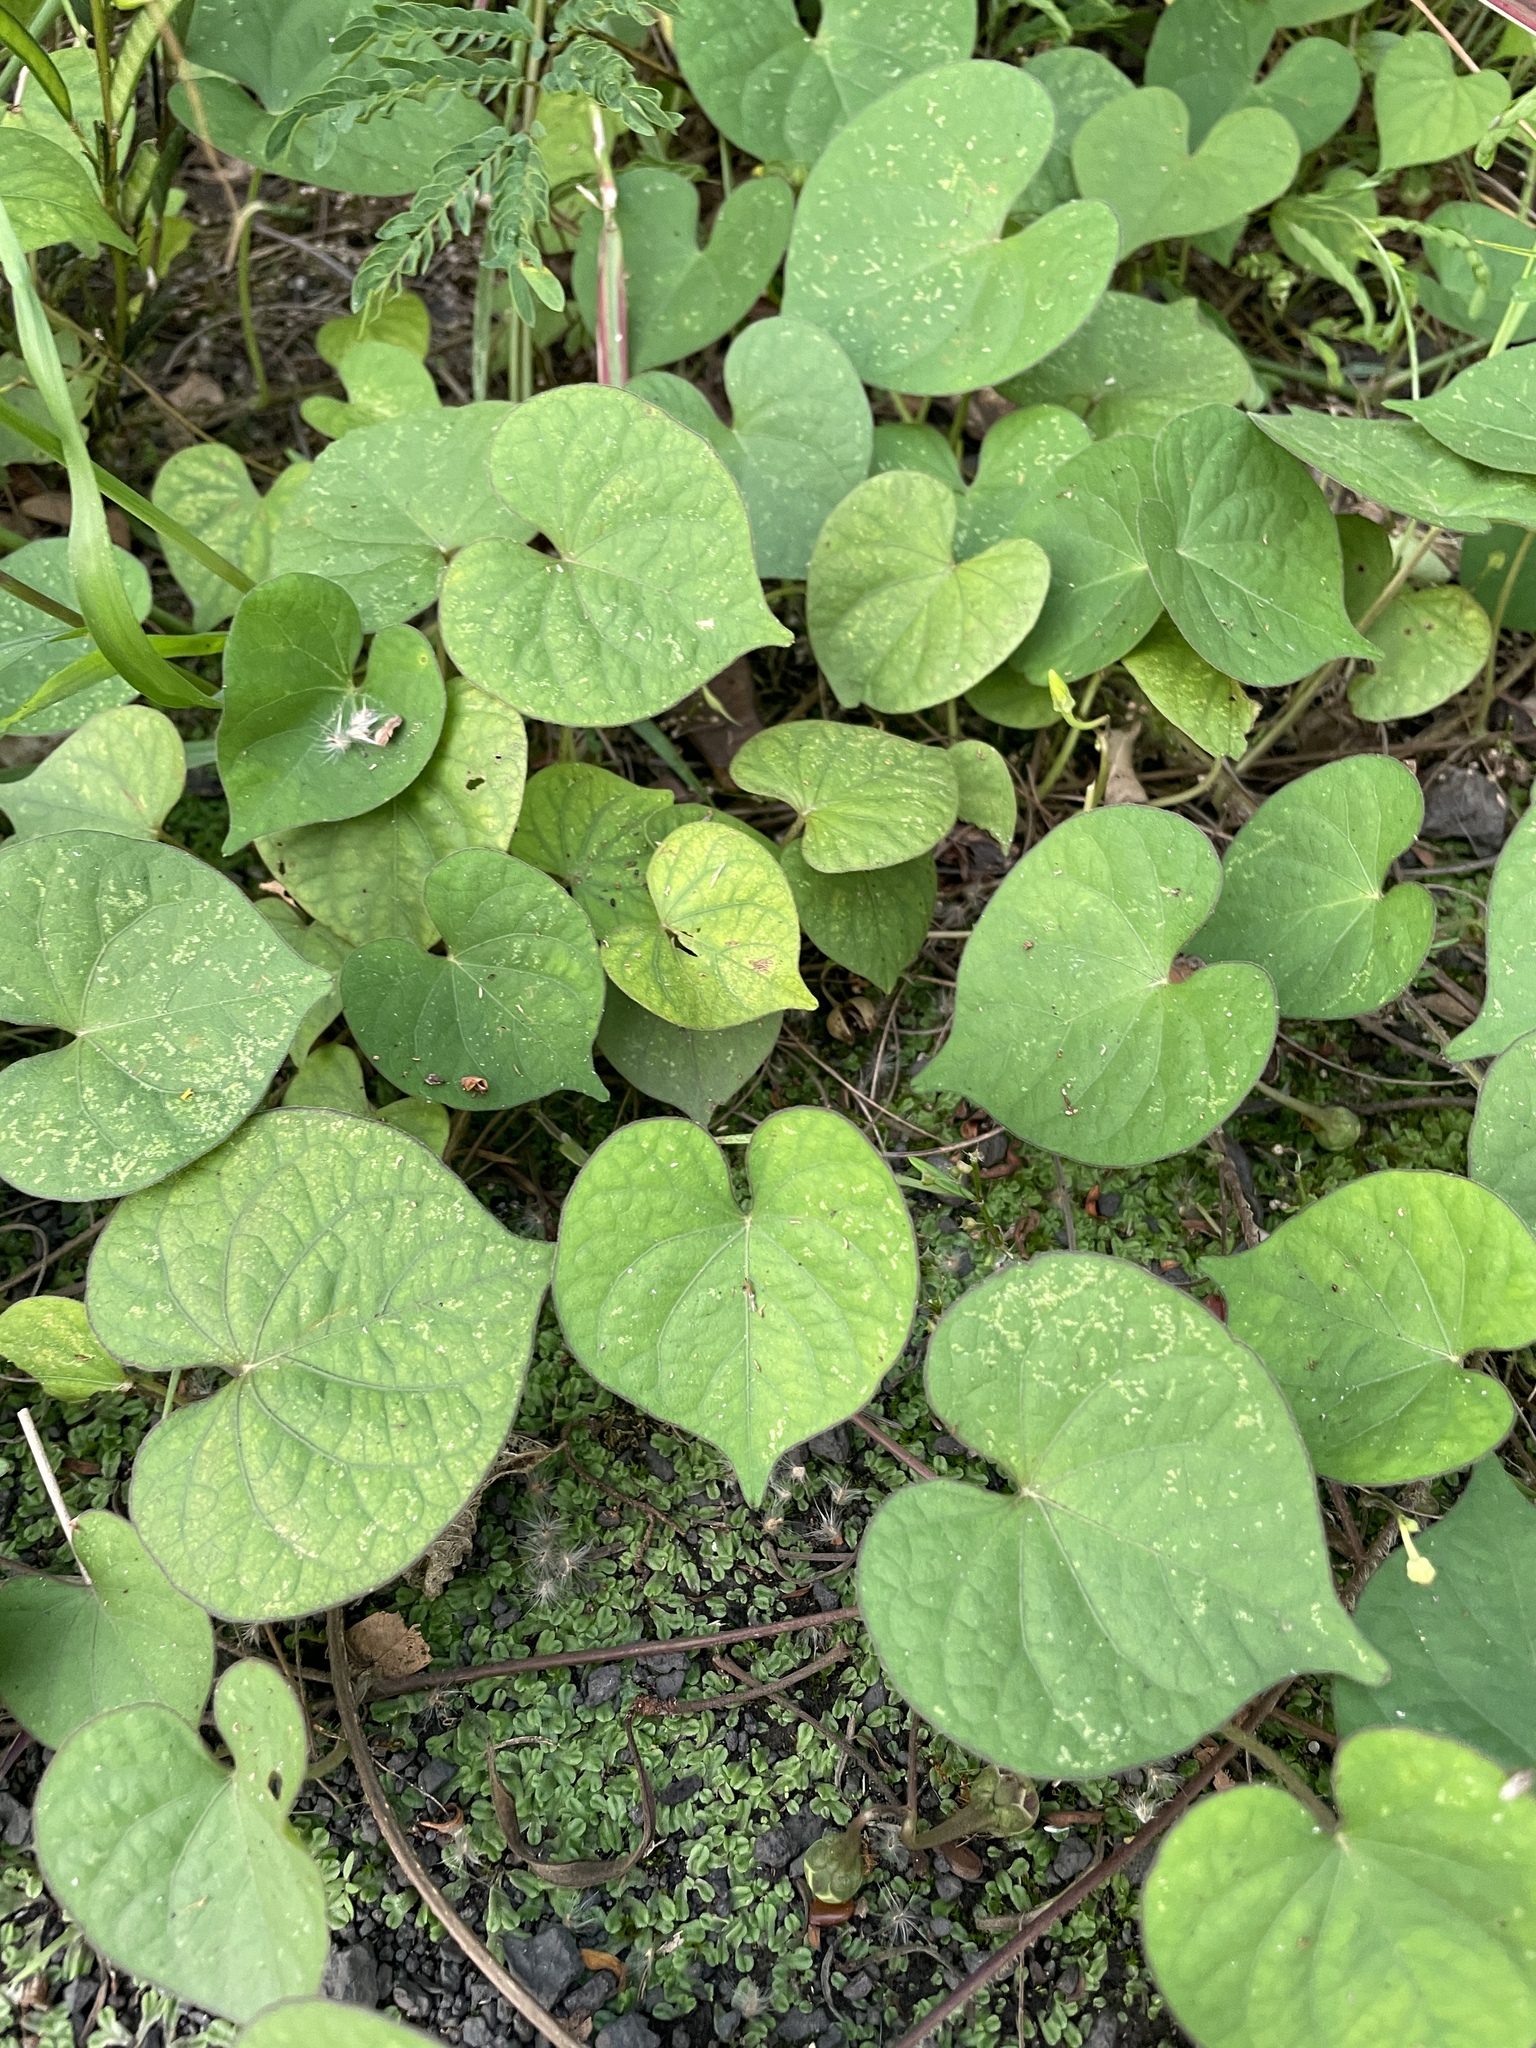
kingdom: Plantae
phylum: Tracheophyta
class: Magnoliopsida
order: Solanales
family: Convolvulaceae
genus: Ipomoea
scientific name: Ipomoea obscura
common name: Obscure morning-glory
